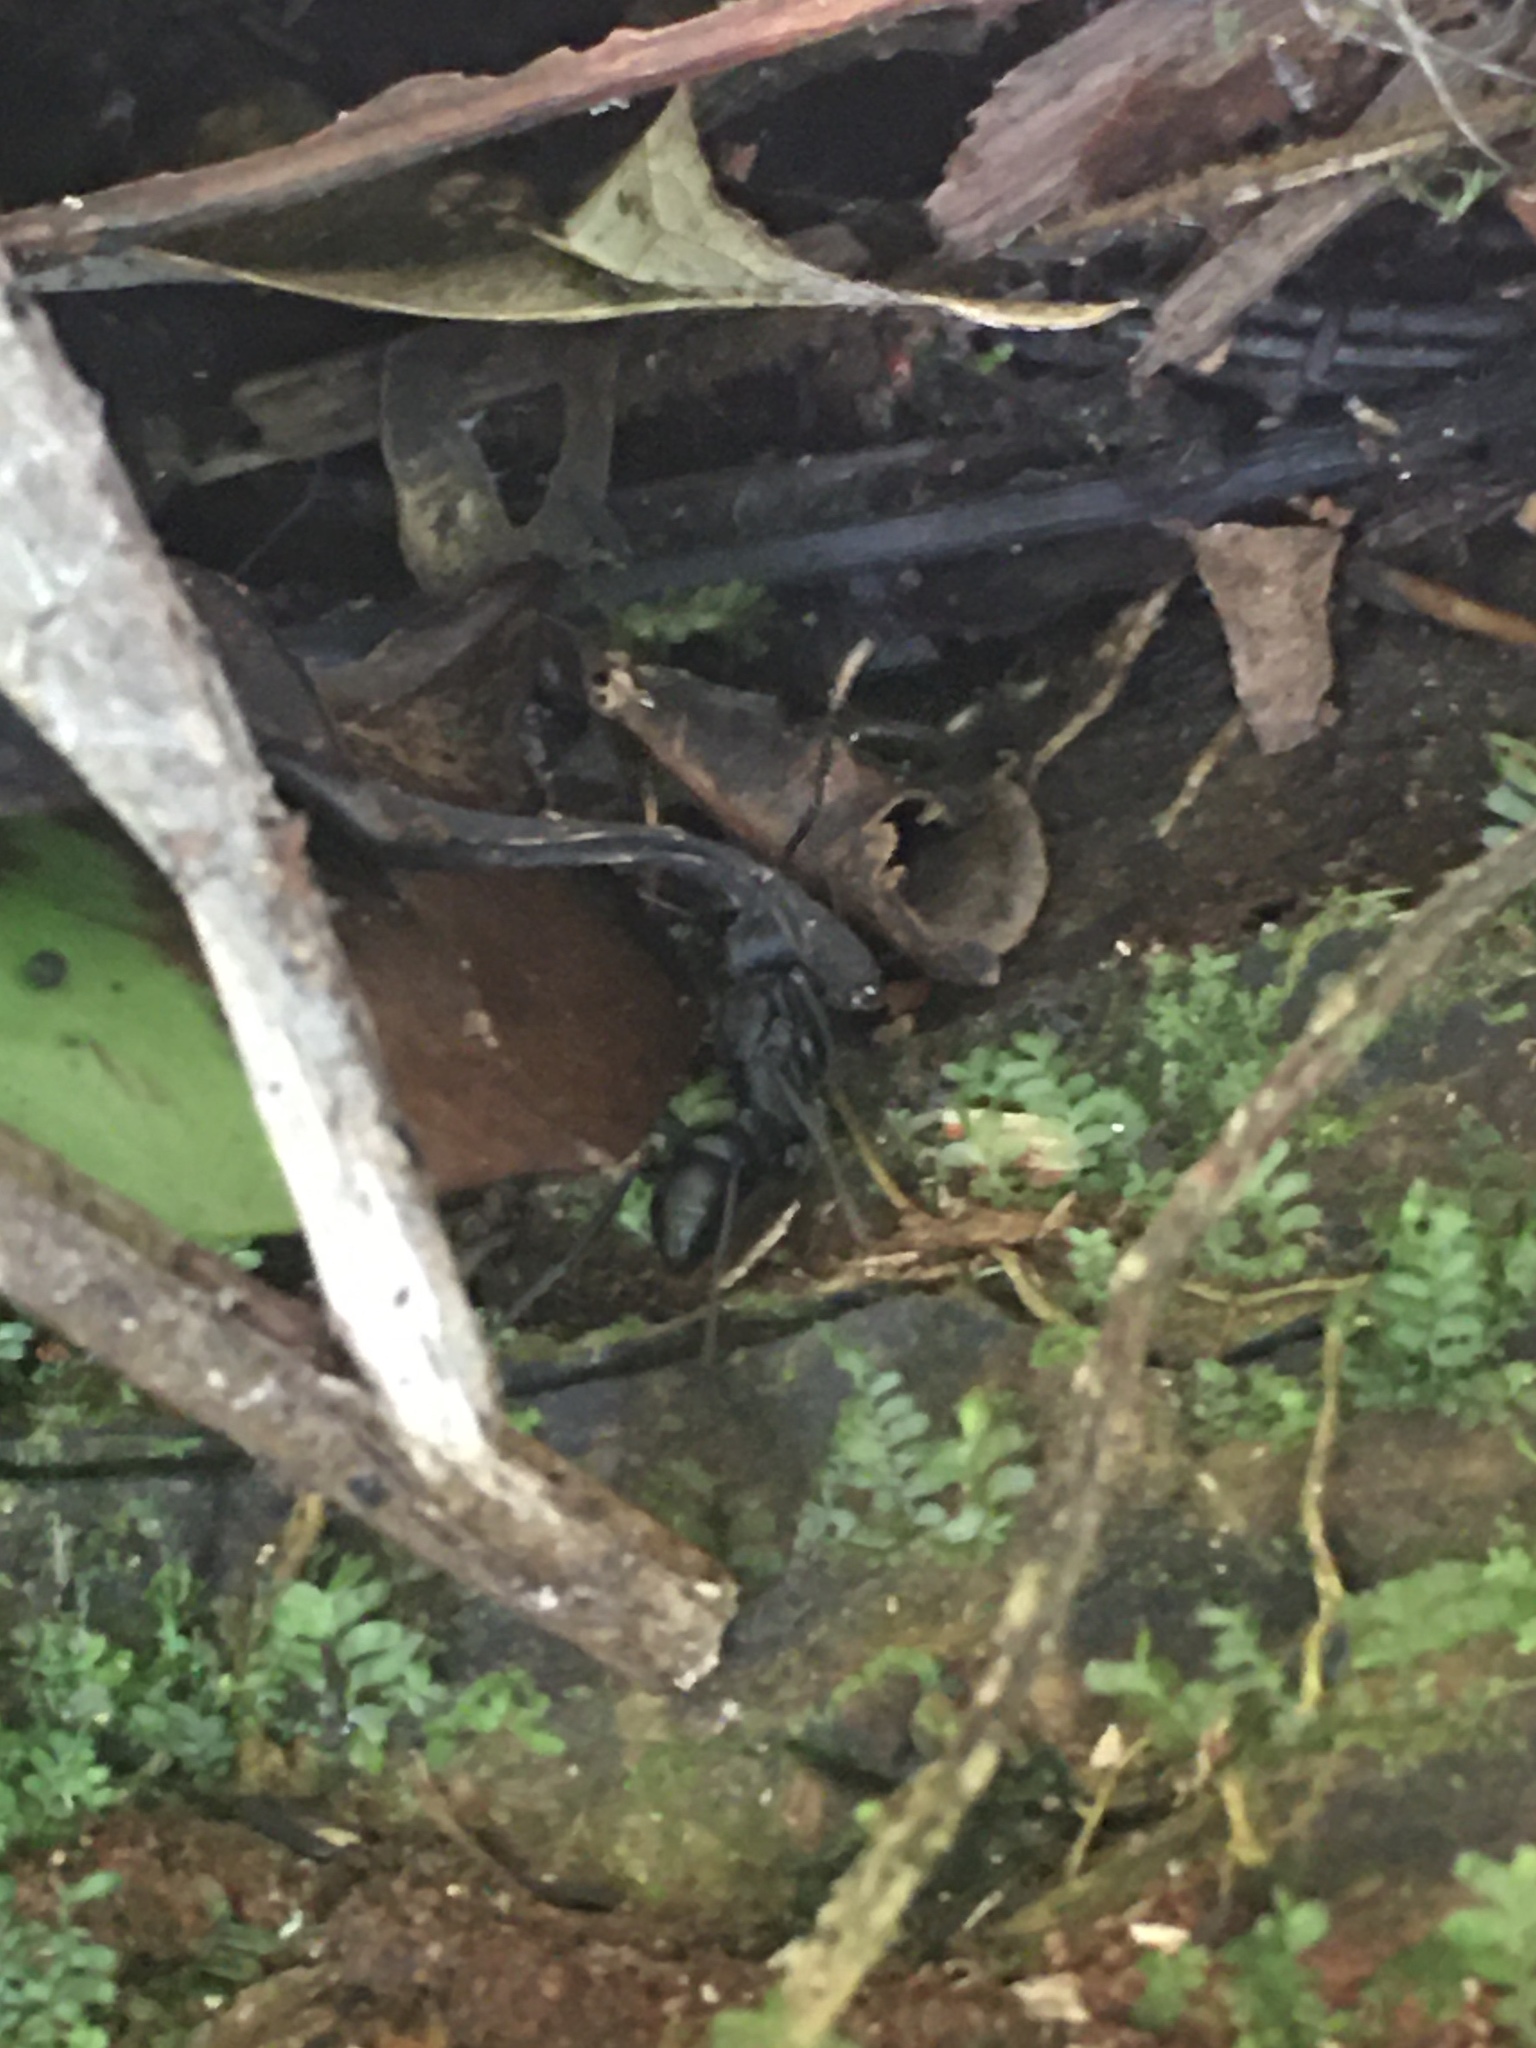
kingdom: Animalia
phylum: Arthropoda
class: Insecta
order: Hymenoptera
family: Formicidae
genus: Pachycondyla
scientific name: Pachycondyla apicalis
